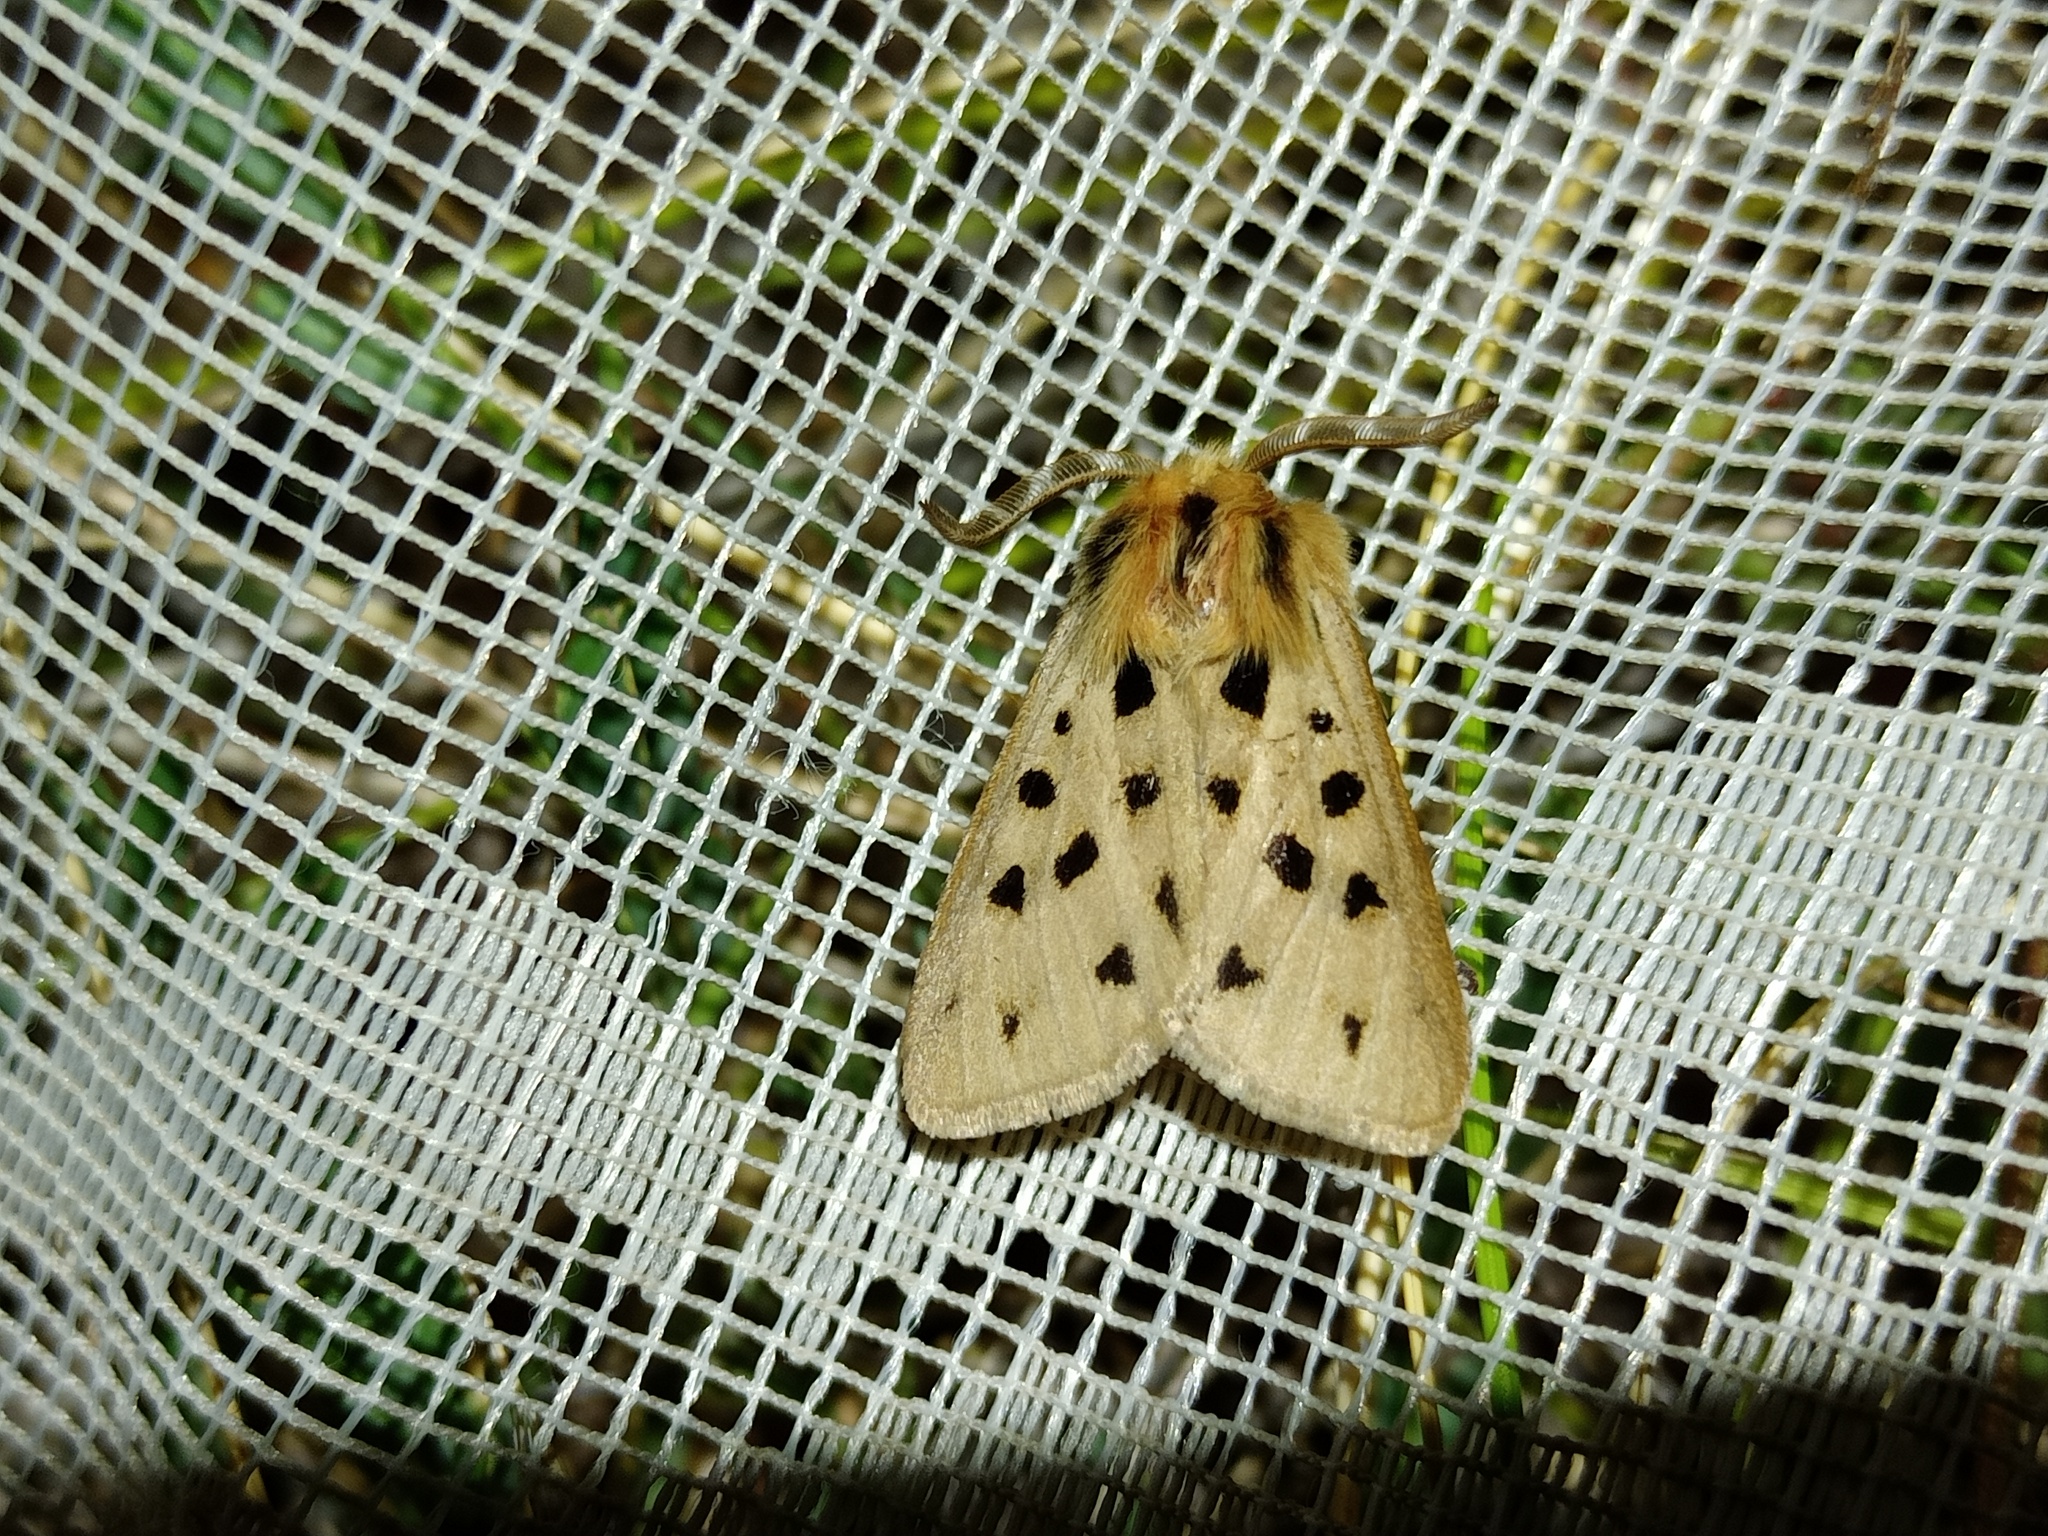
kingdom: Animalia
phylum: Arthropoda
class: Insecta
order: Lepidoptera
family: Erebidae
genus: Chelis
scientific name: Chelis maculosa
